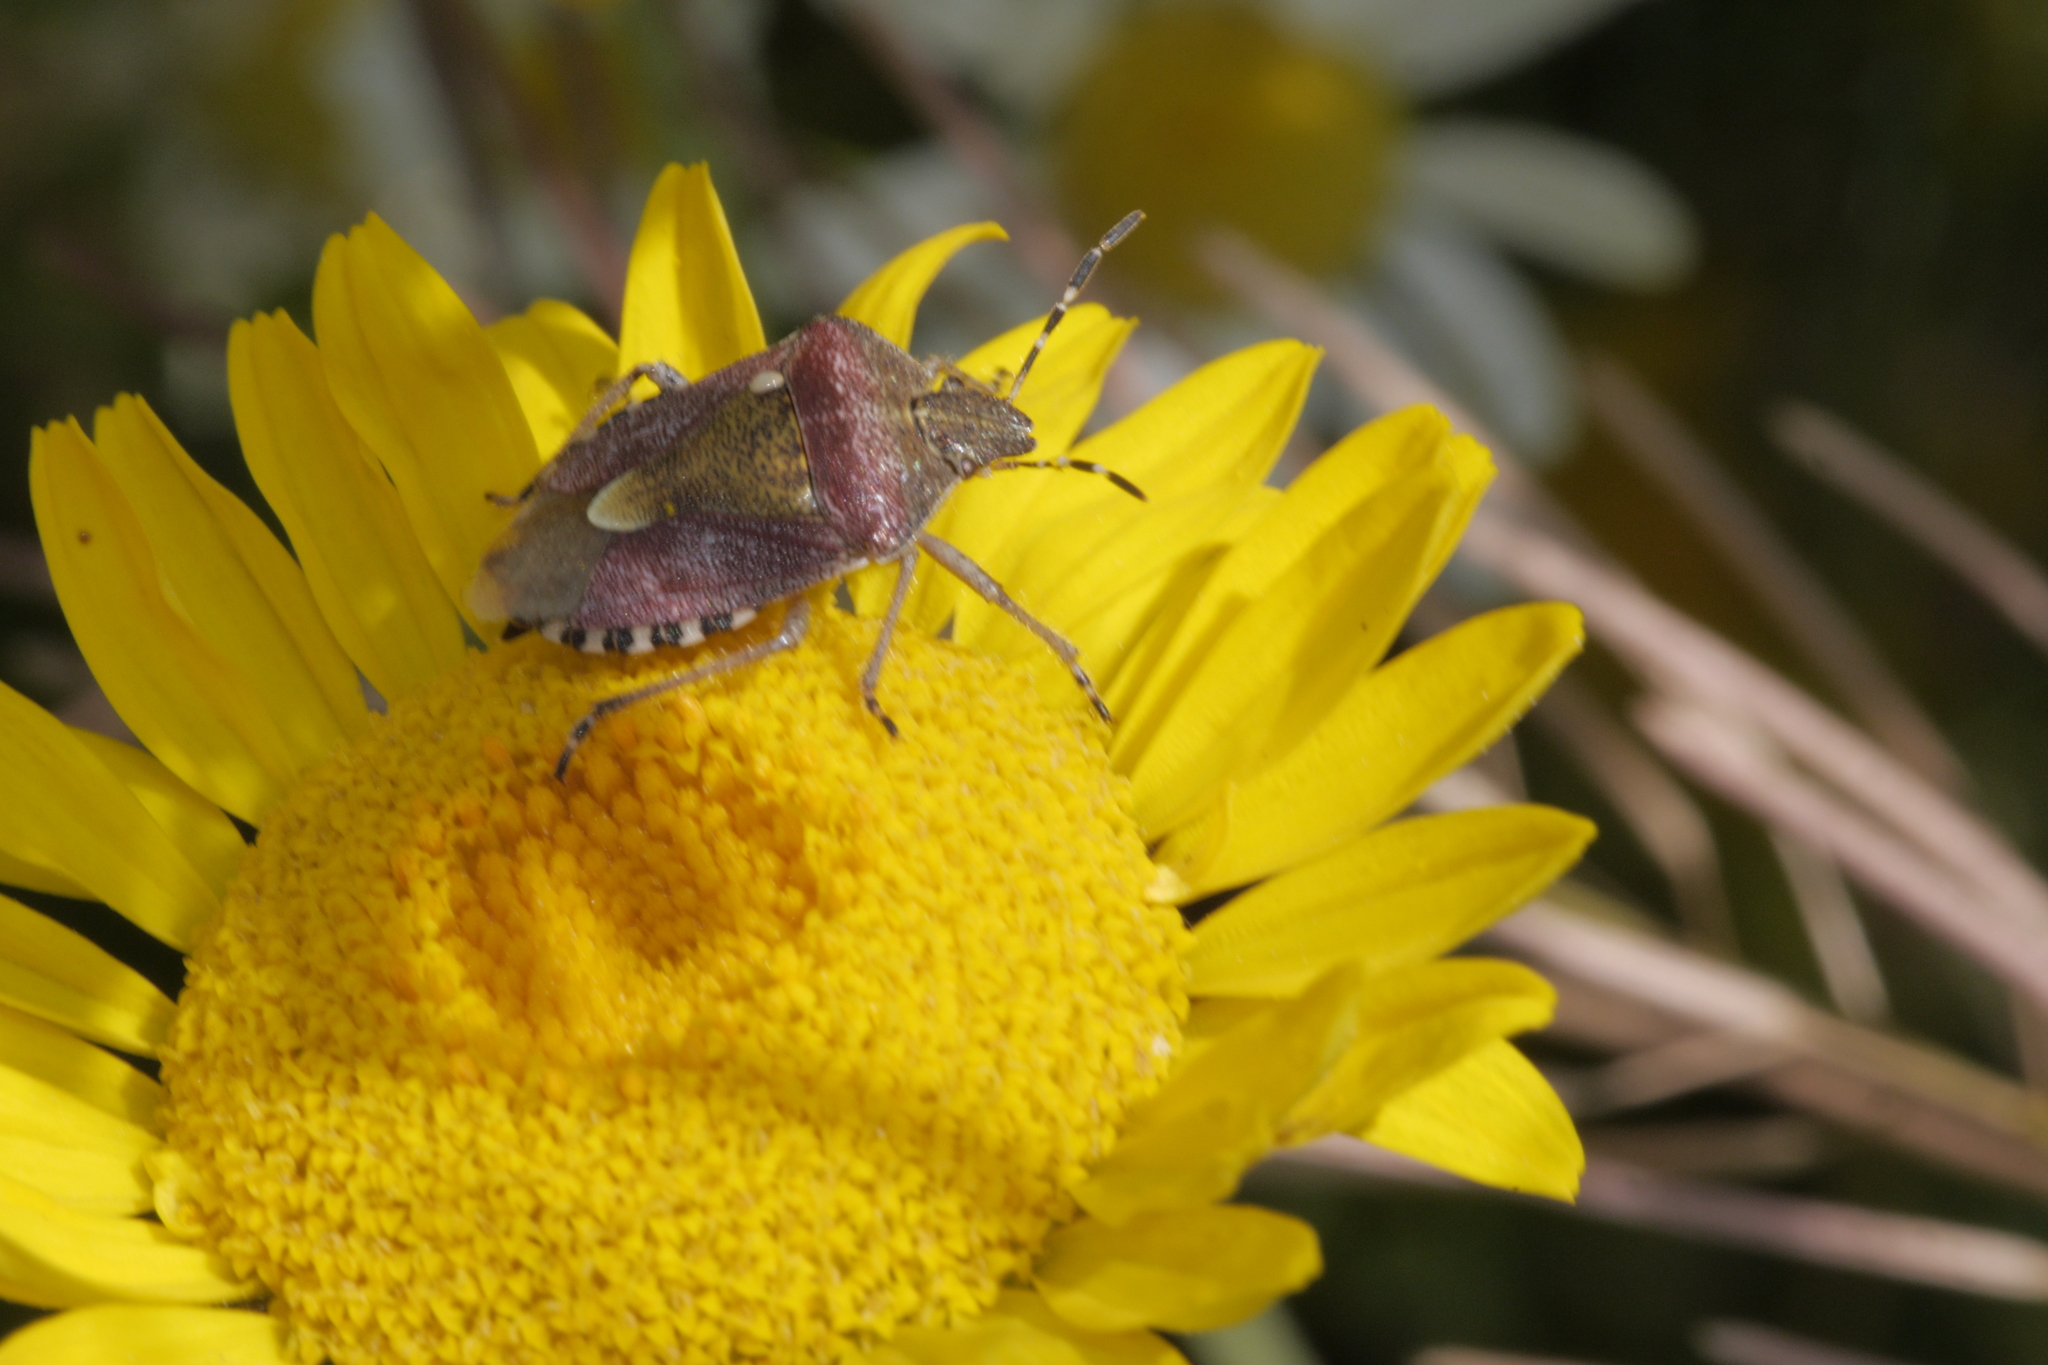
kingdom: Animalia
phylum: Arthropoda
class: Insecta
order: Hemiptera
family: Pentatomidae
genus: Dolycoris
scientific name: Dolycoris baccarum
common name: Sloe bug
